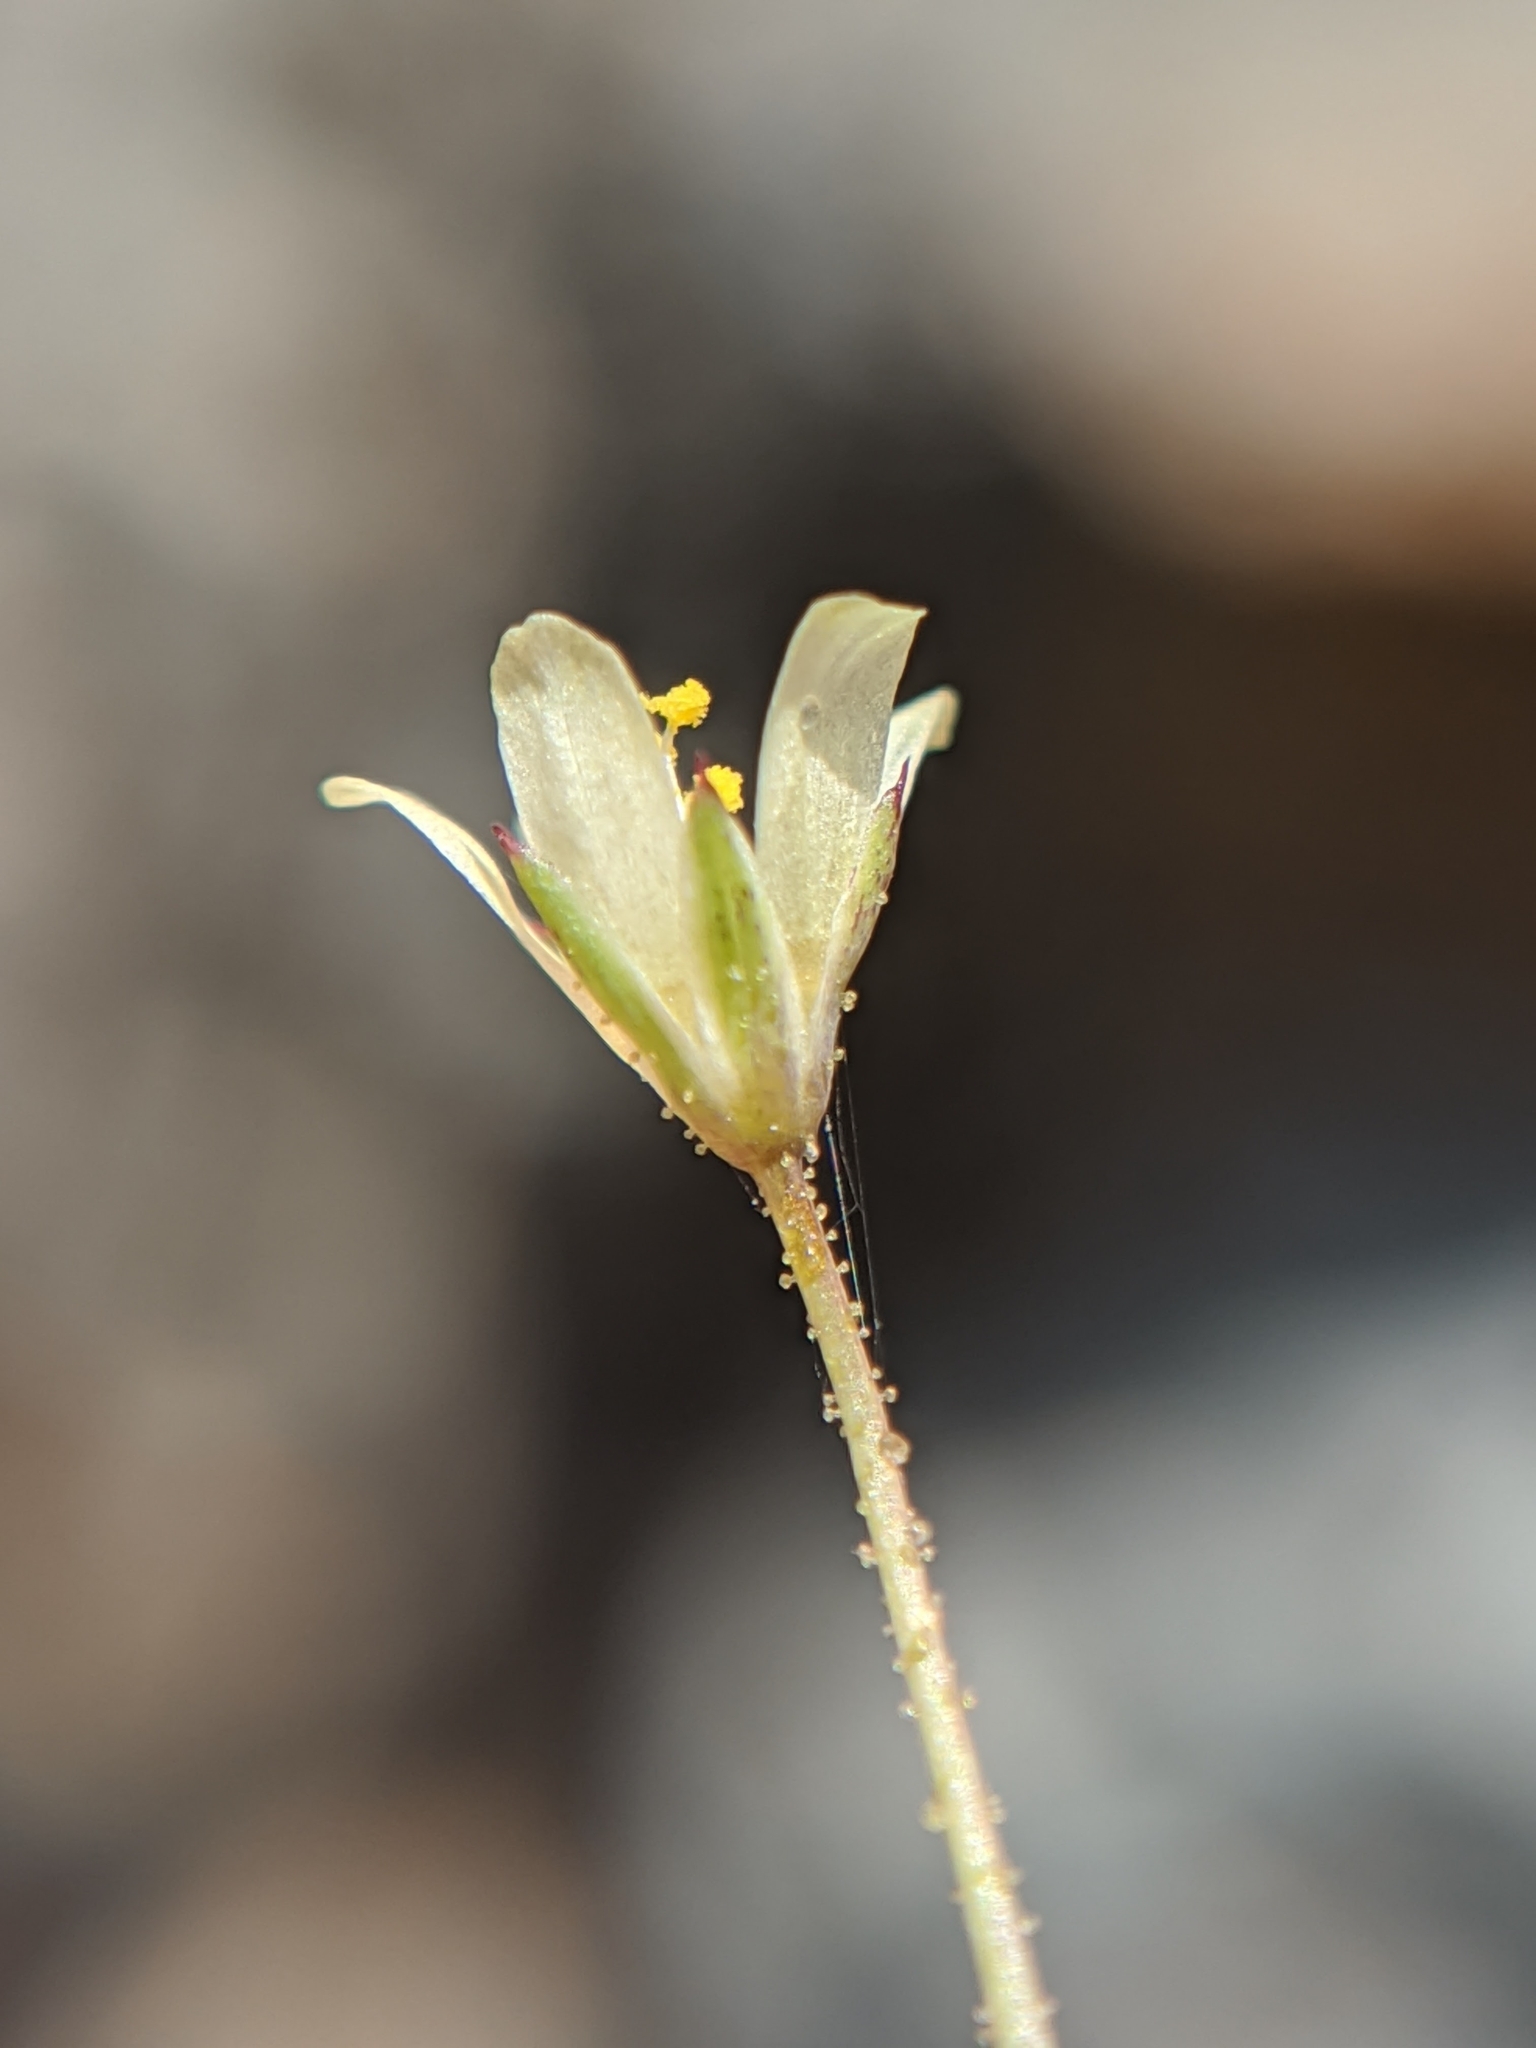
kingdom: Plantae
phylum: Tracheophyta
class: Magnoliopsida
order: Ericales
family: Polemoniaceae
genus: Linanthus
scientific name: Linanthus filiformis
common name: Yellow gilia
